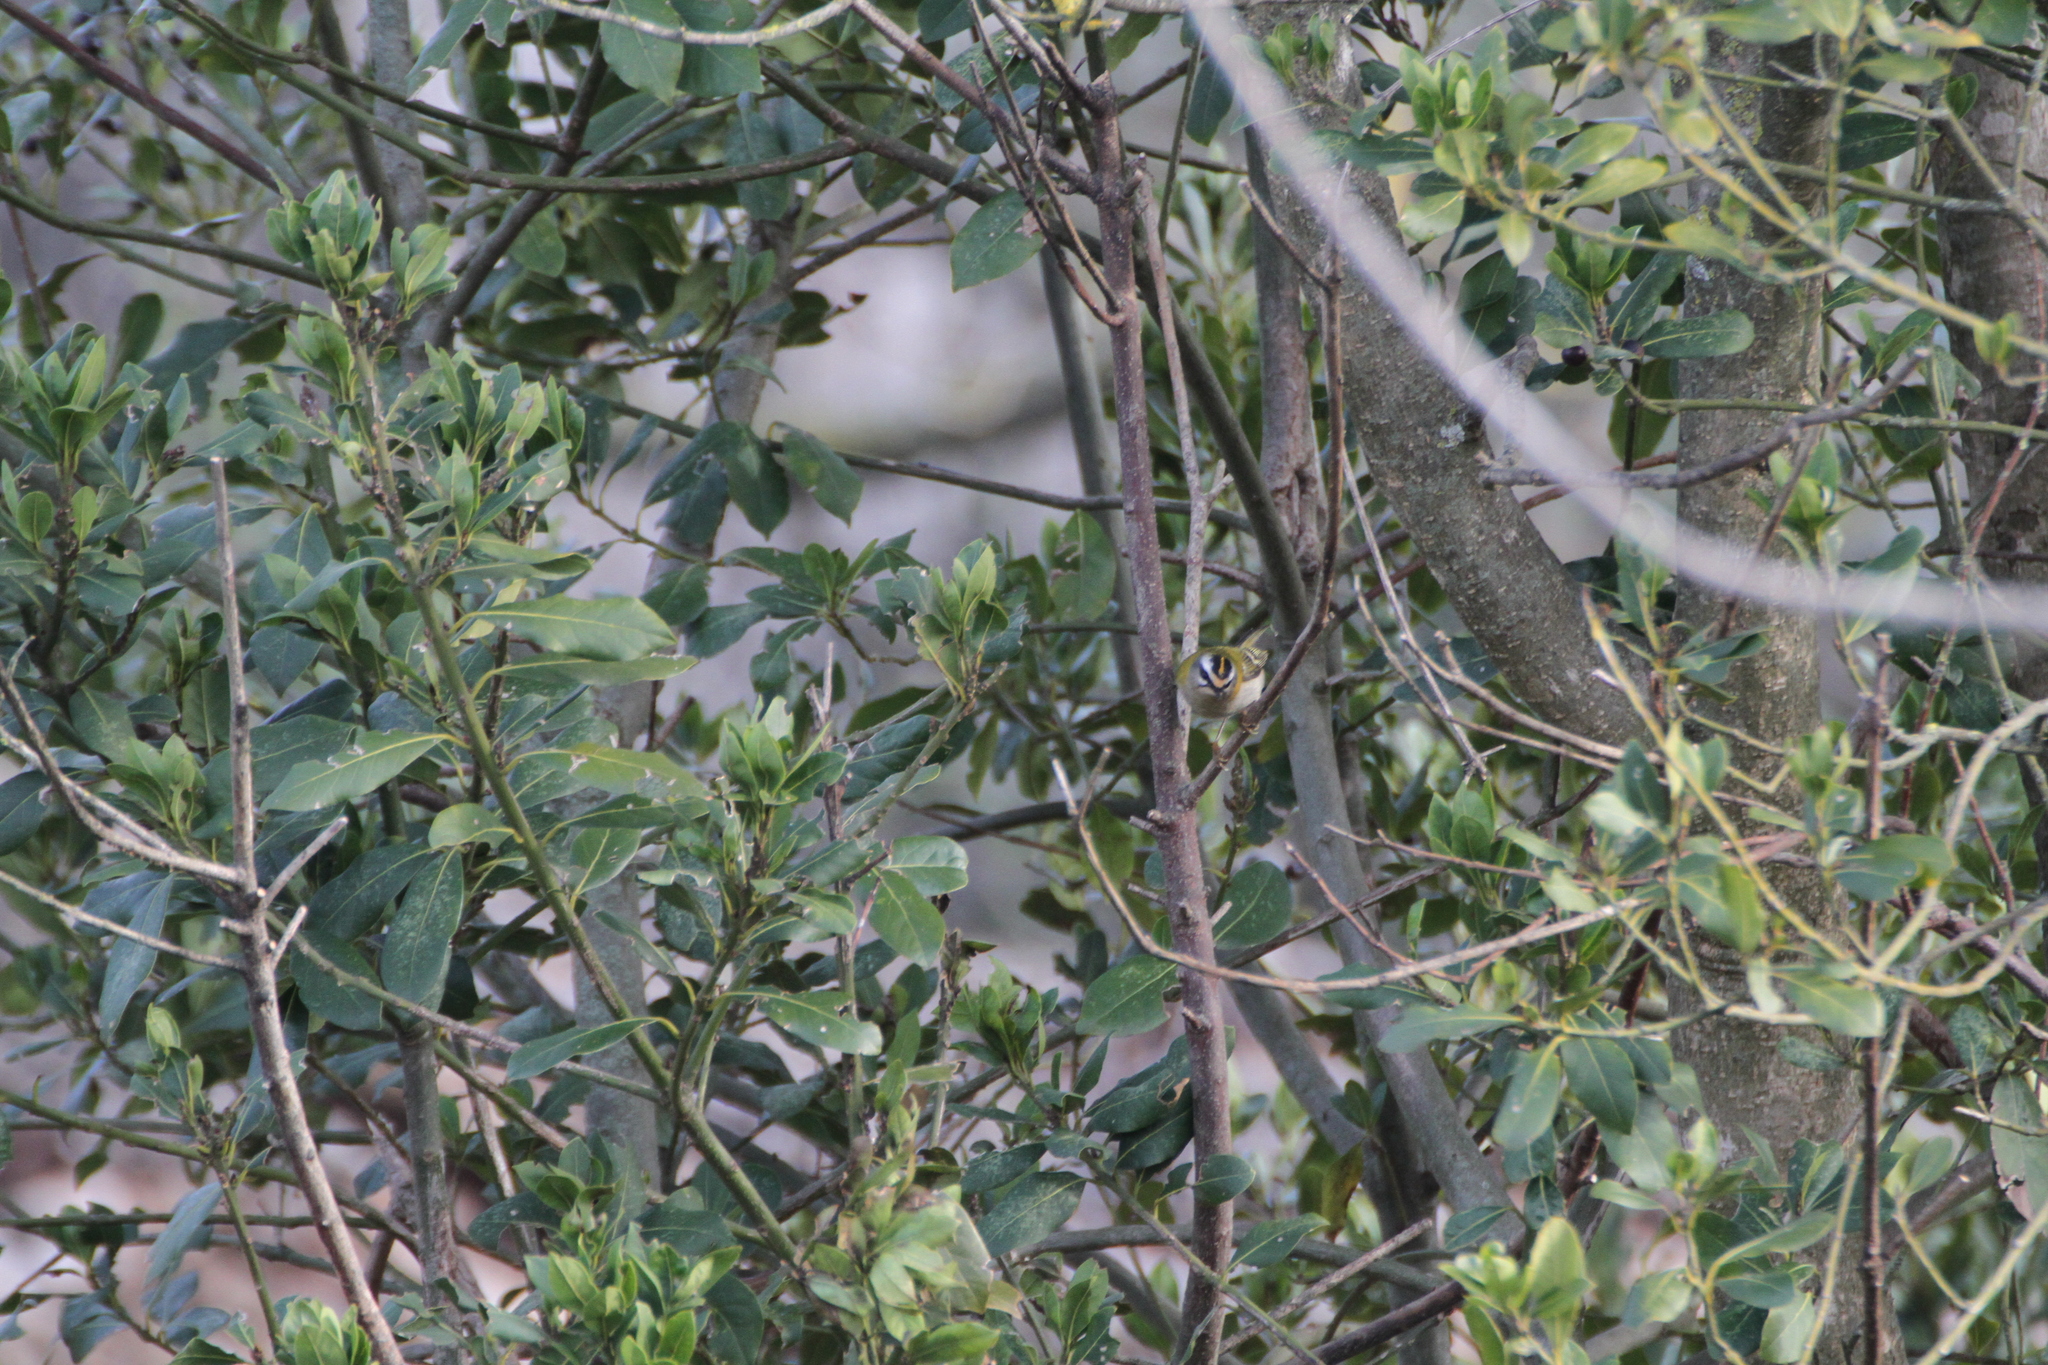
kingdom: Animalia
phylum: Chordata
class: Aves
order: Passeriformes
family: Regulidae
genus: Regulus
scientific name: Regulus ignicapilla
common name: Firecrest
